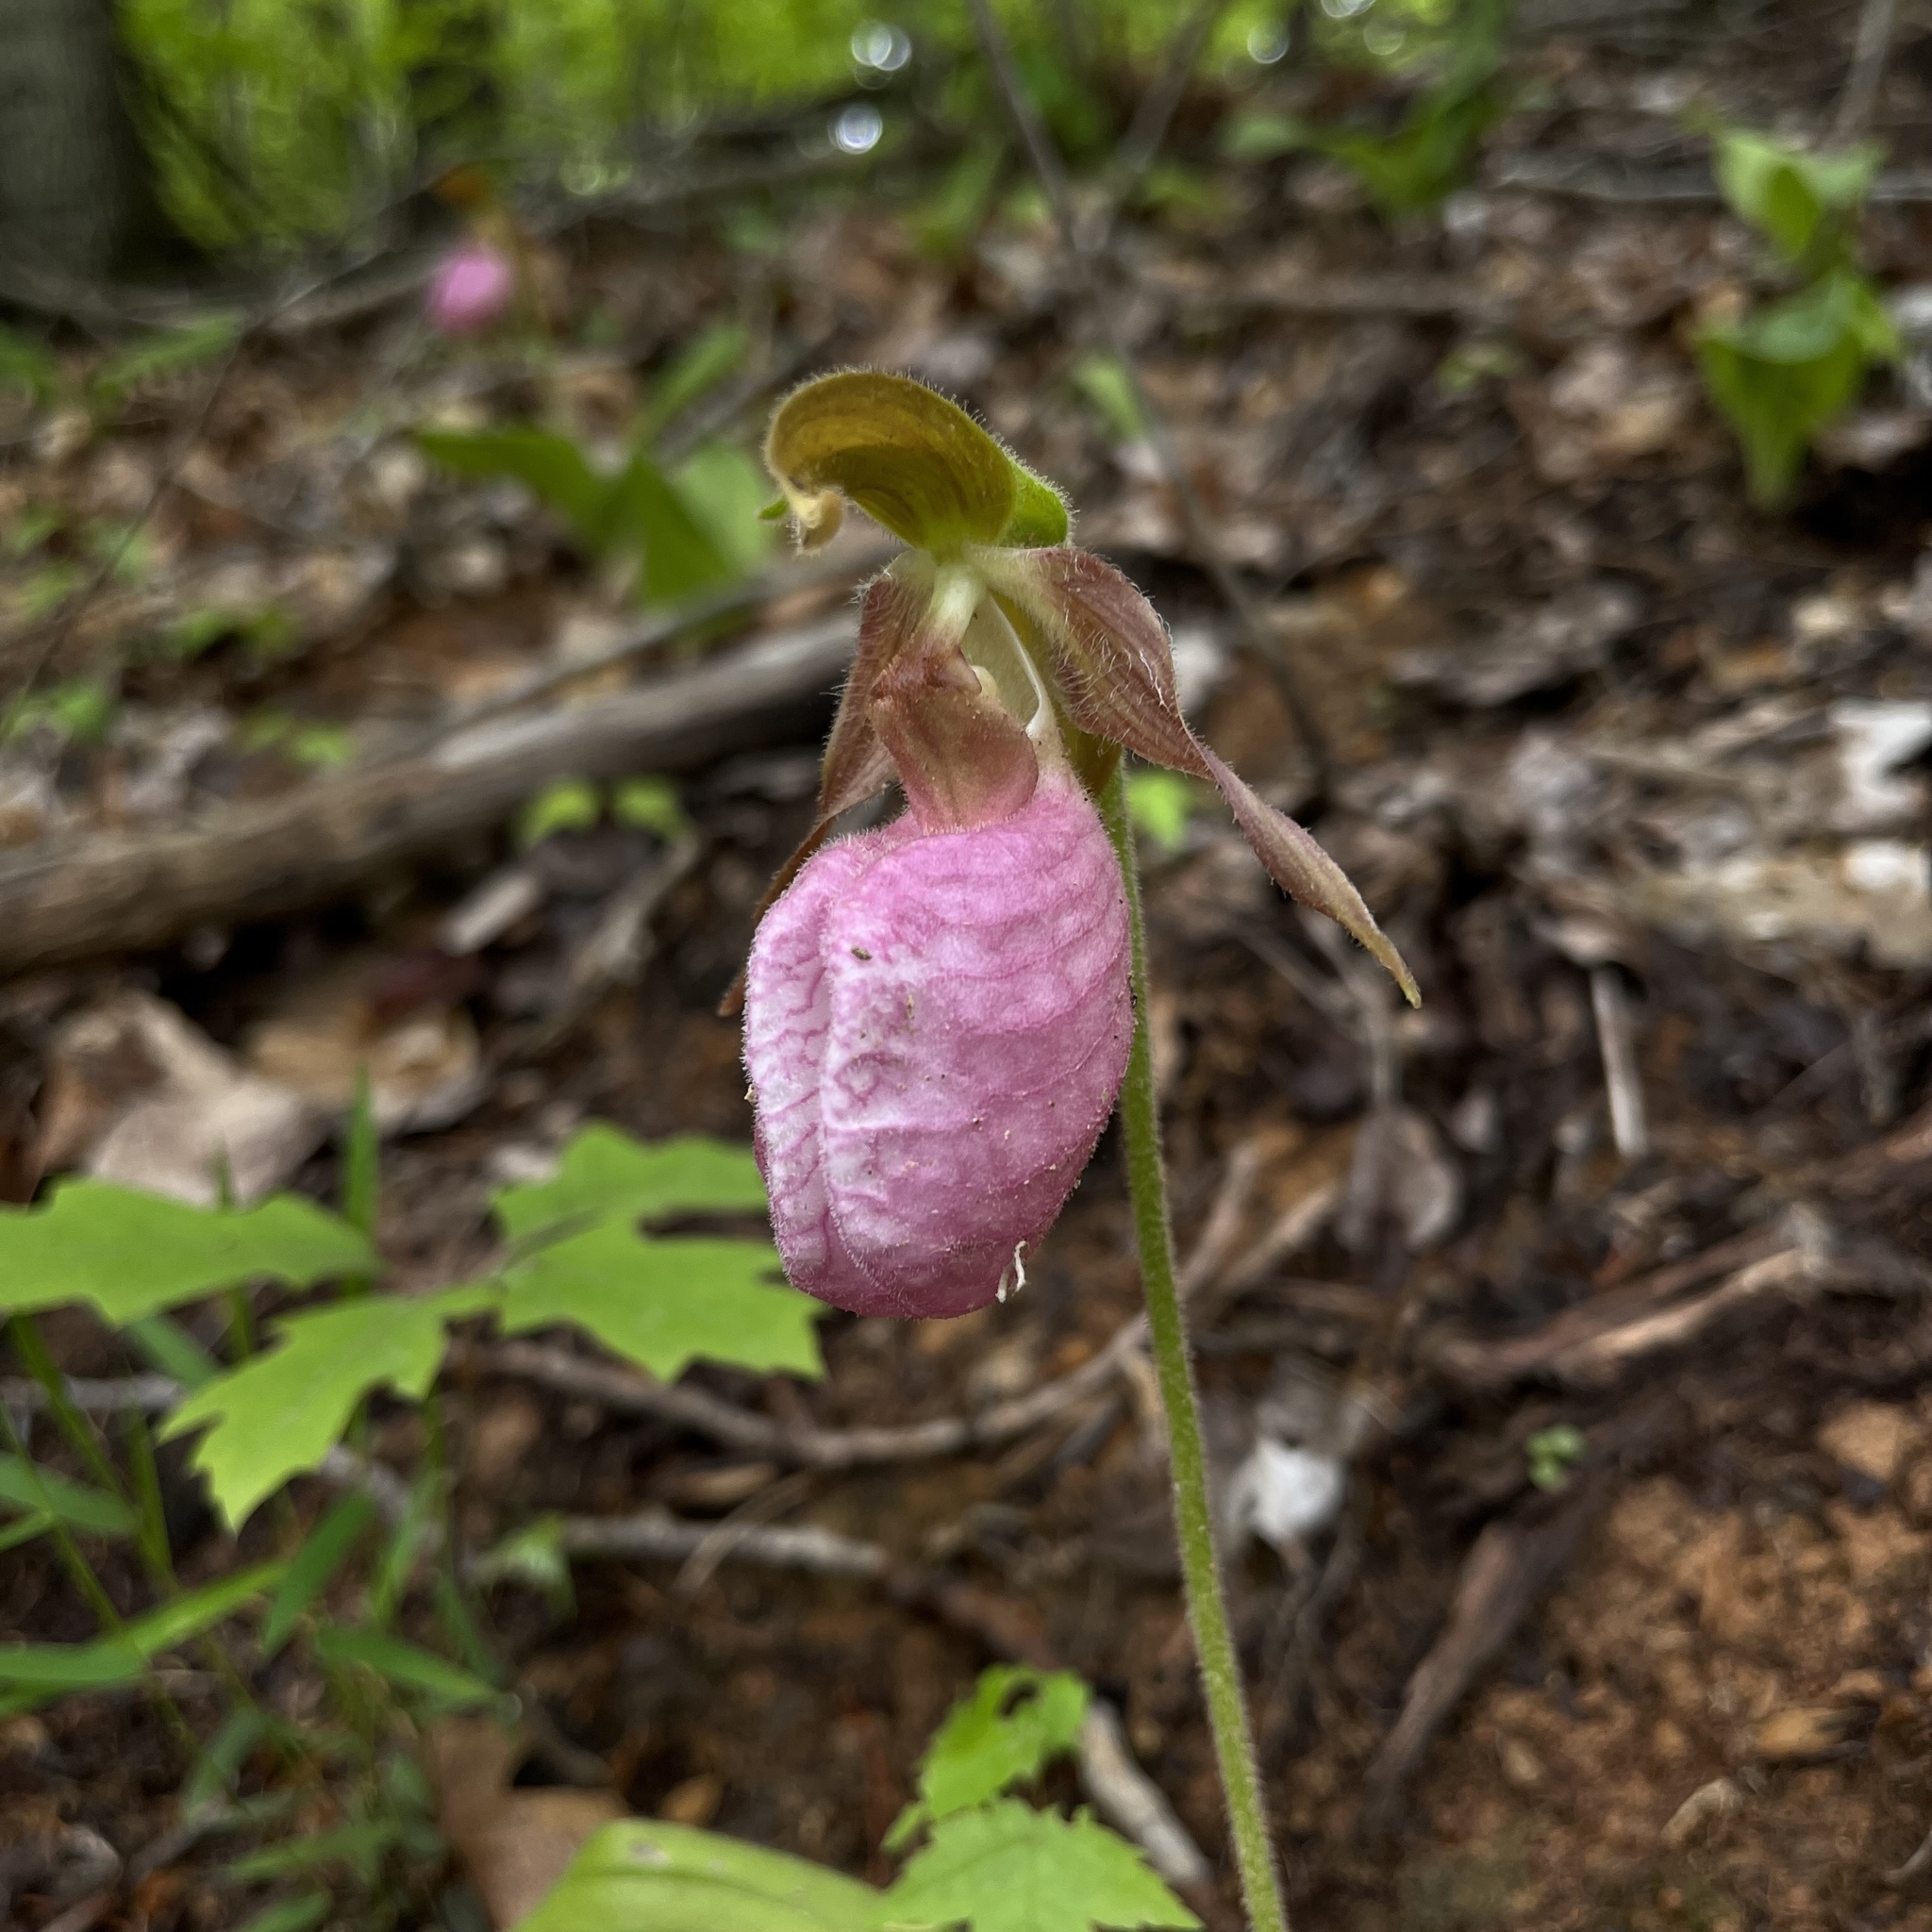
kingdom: Plantae
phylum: Tracheophyta
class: Liliopsida
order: Asparagales
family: Orchidaceae
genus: Cypripedium
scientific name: Cypripedium acaule
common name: Pink lady's-slipper
